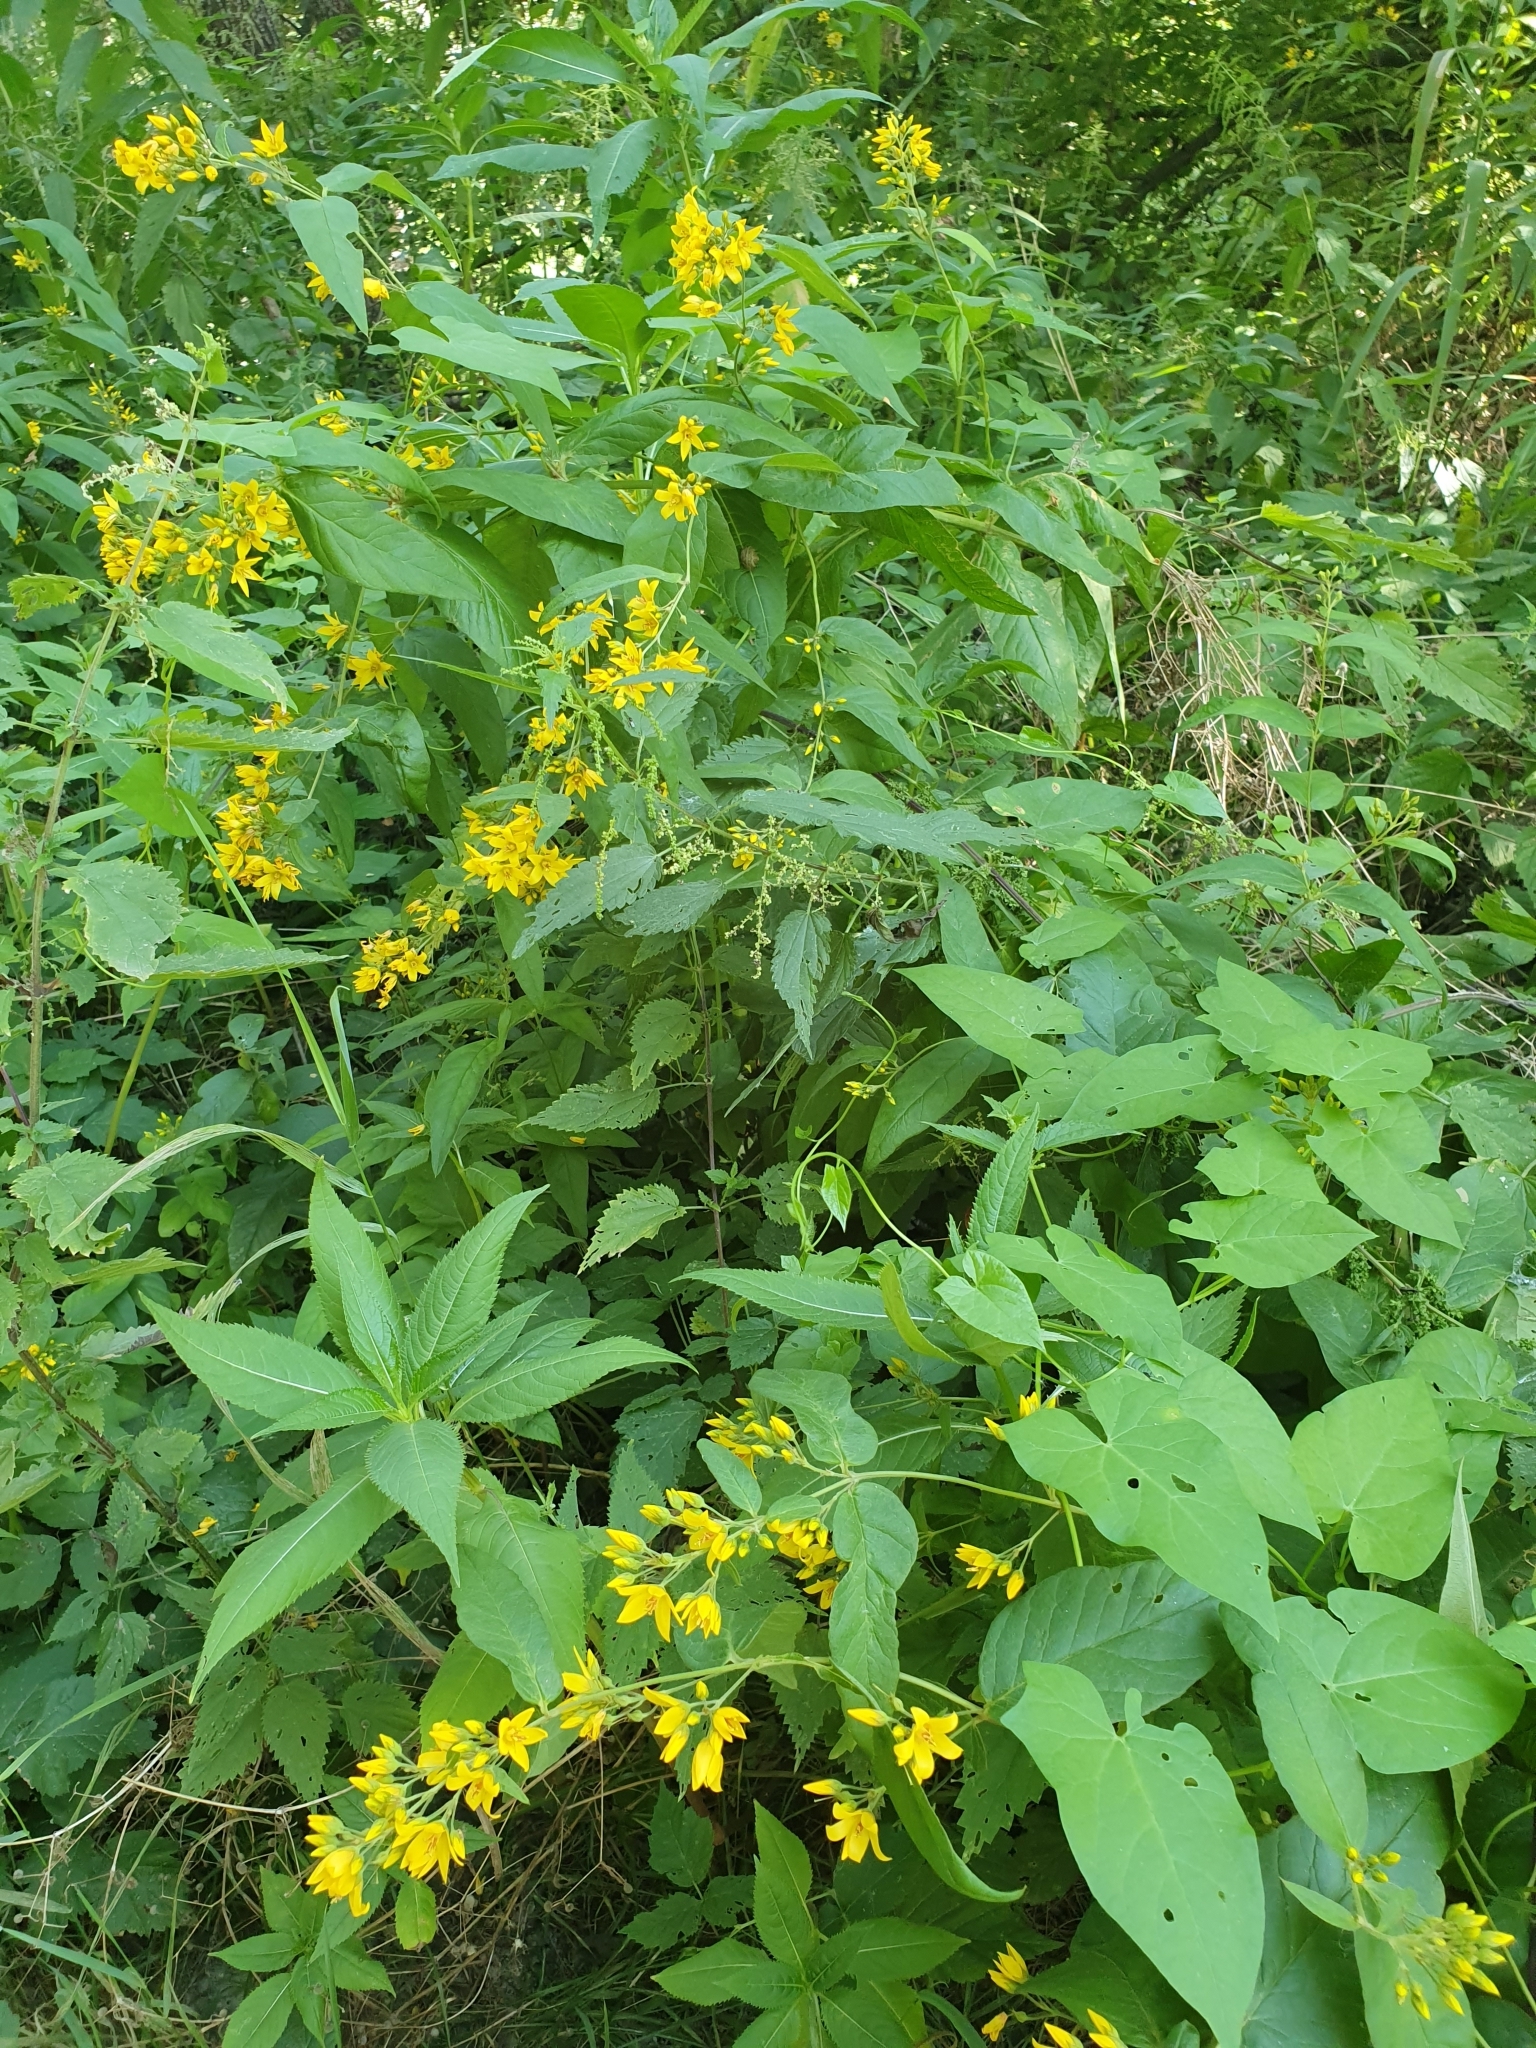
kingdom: Plantae
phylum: Tracheophyta
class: Magnoliopsida
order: Ericales
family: Primulaceae
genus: Lysimachia
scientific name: Lysimachia vulgaris
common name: Yellow loosestrife
